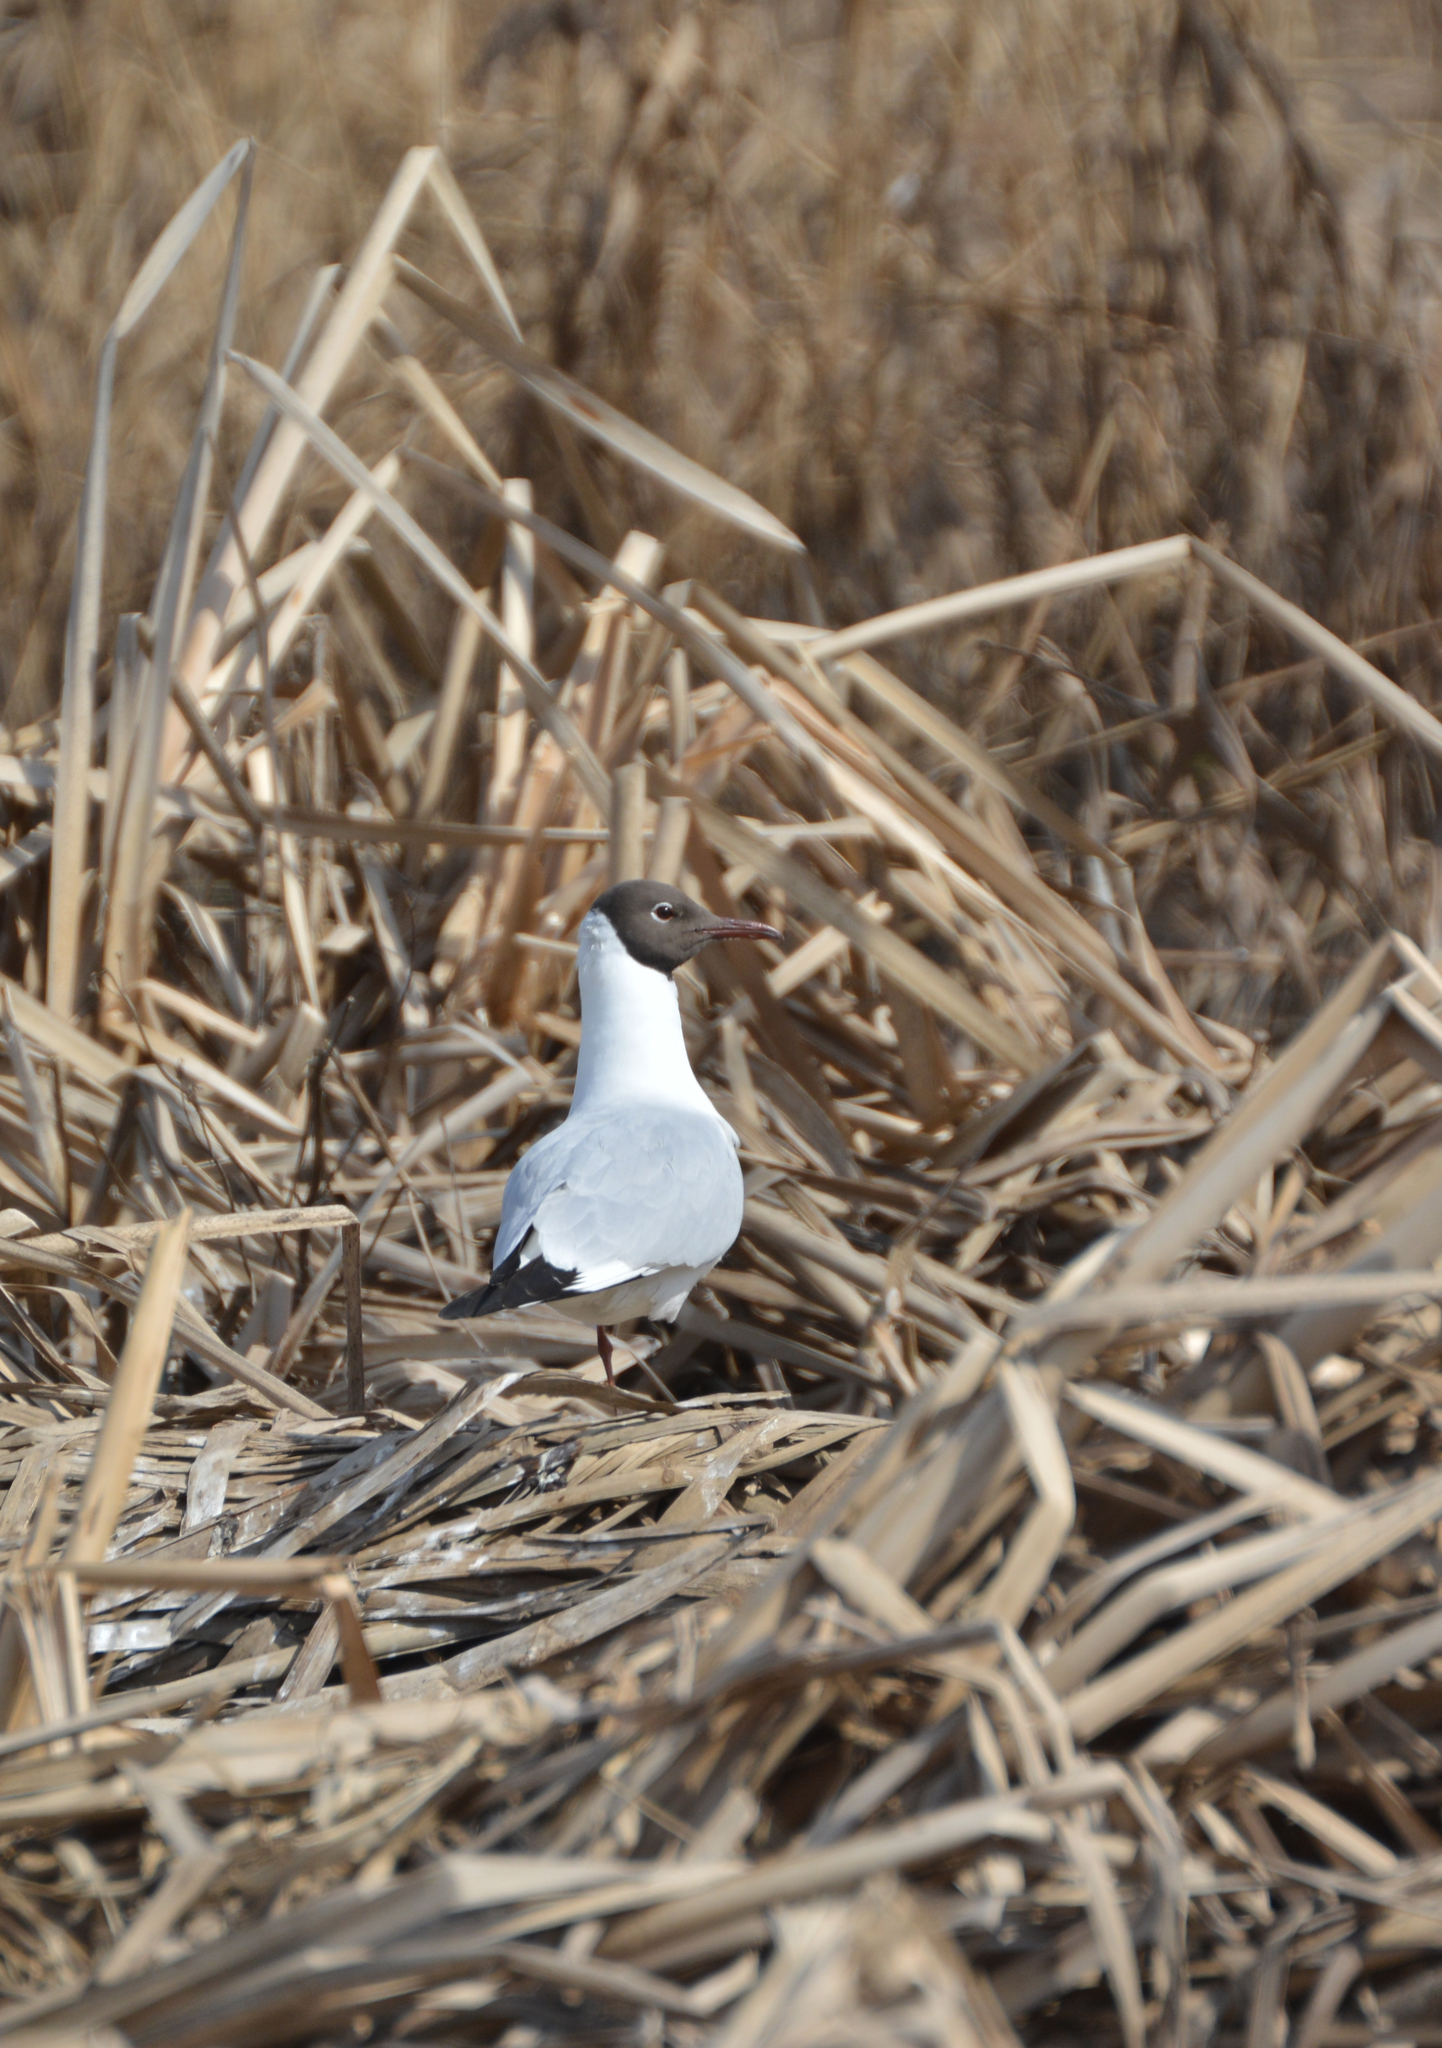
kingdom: Animalia
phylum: Chordata
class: Aves
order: Charadriiformes
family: Laridae
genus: Chroicocephalus
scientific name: Chroicocephalus ridibundus
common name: Black-headed gull
